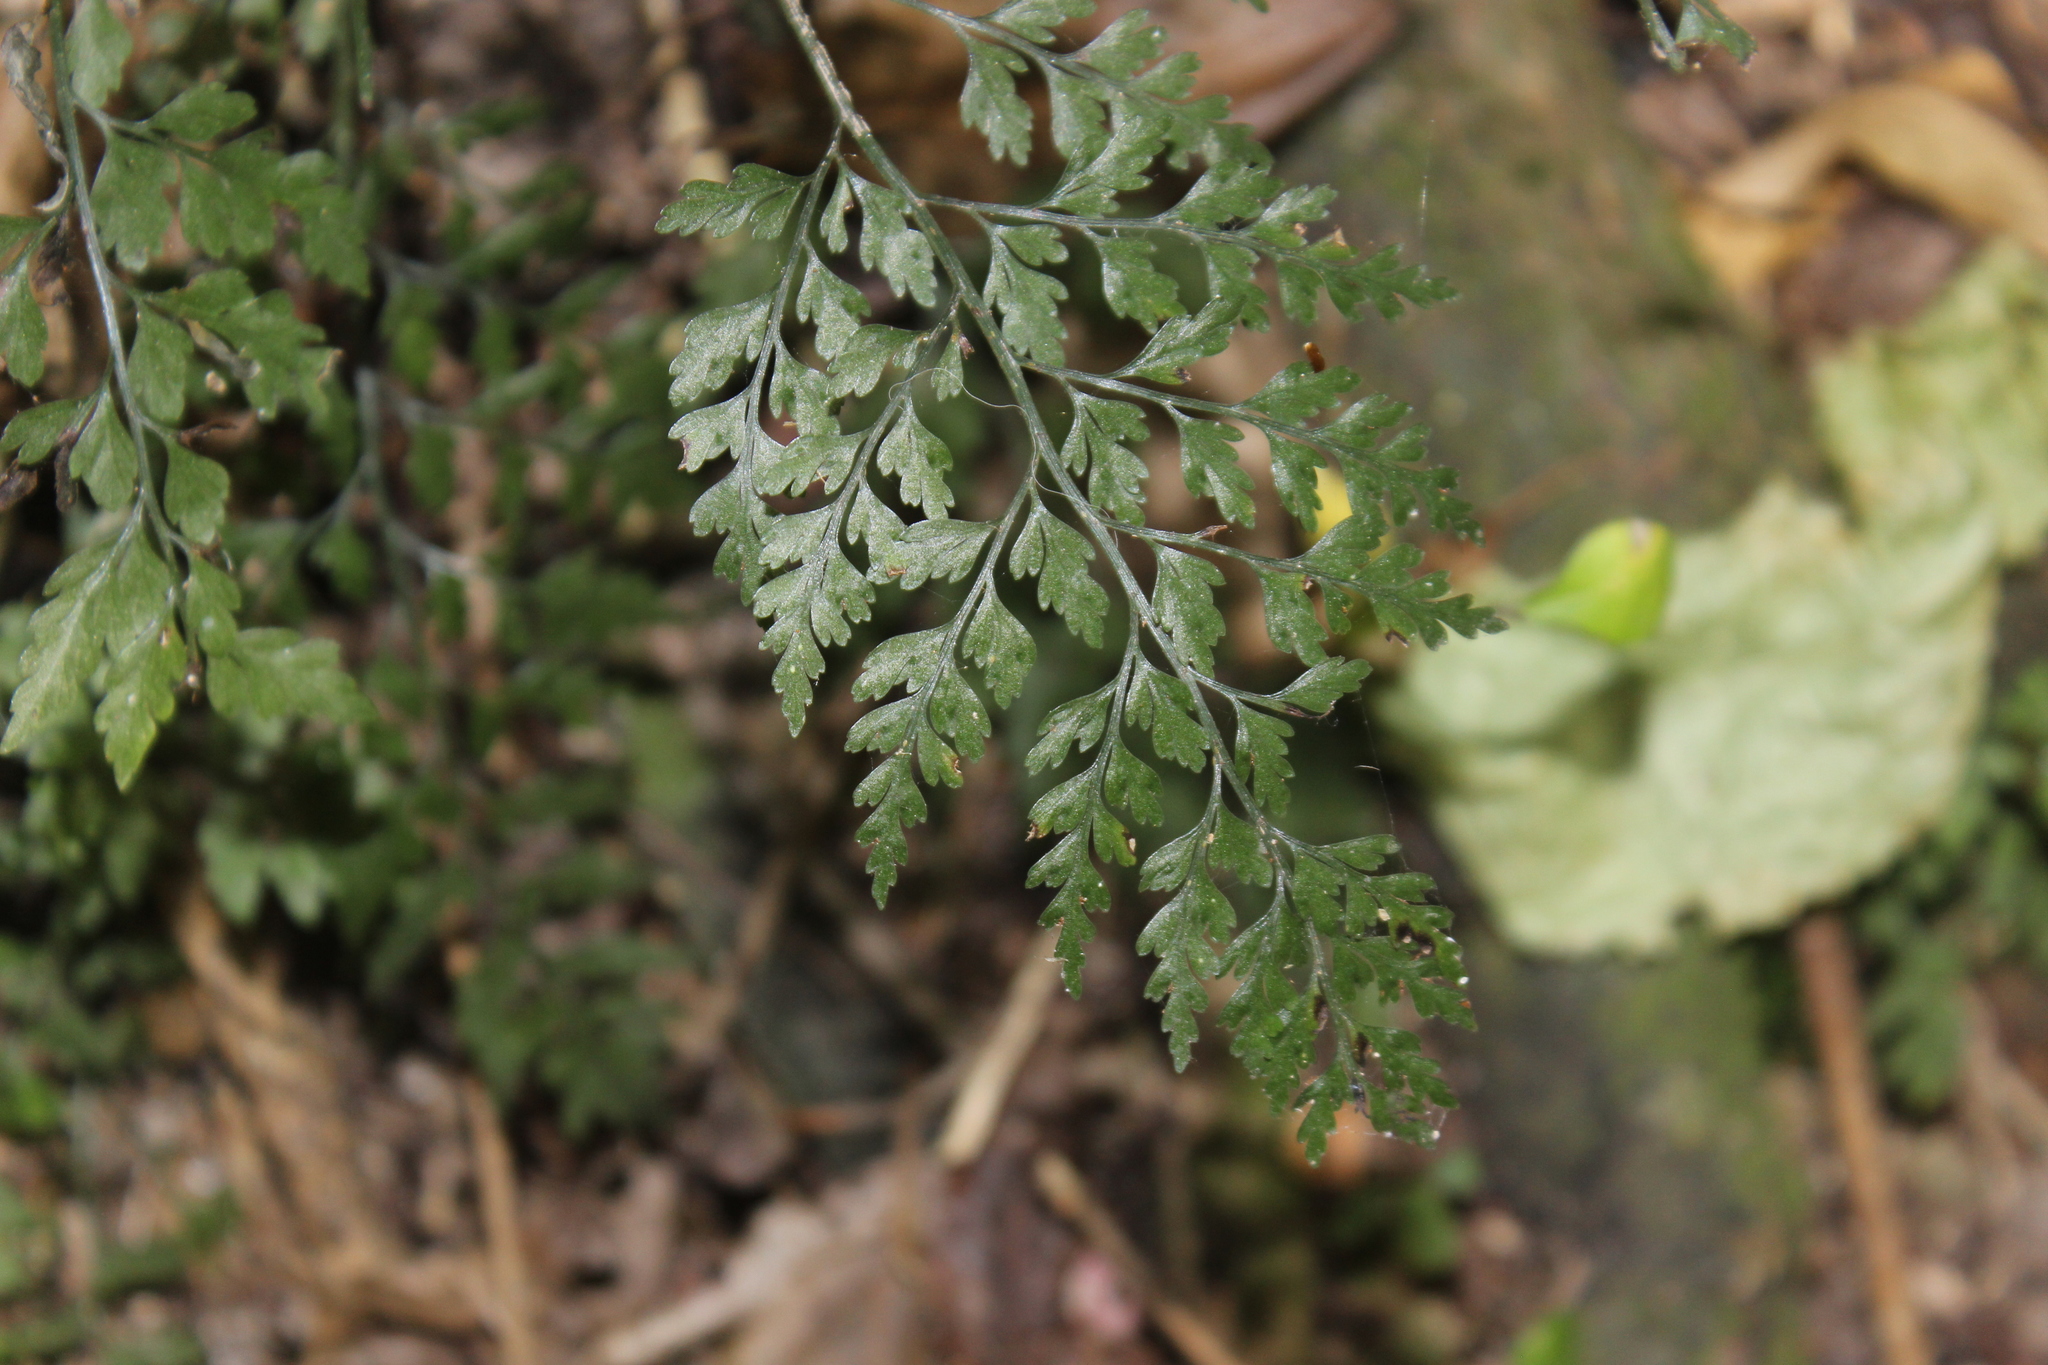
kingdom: Plantae
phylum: Tracheophyta
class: Polypodiopsida
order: Polypodiales
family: Aspleniaceae
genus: Asplenium
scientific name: Asplenium hookerianum
